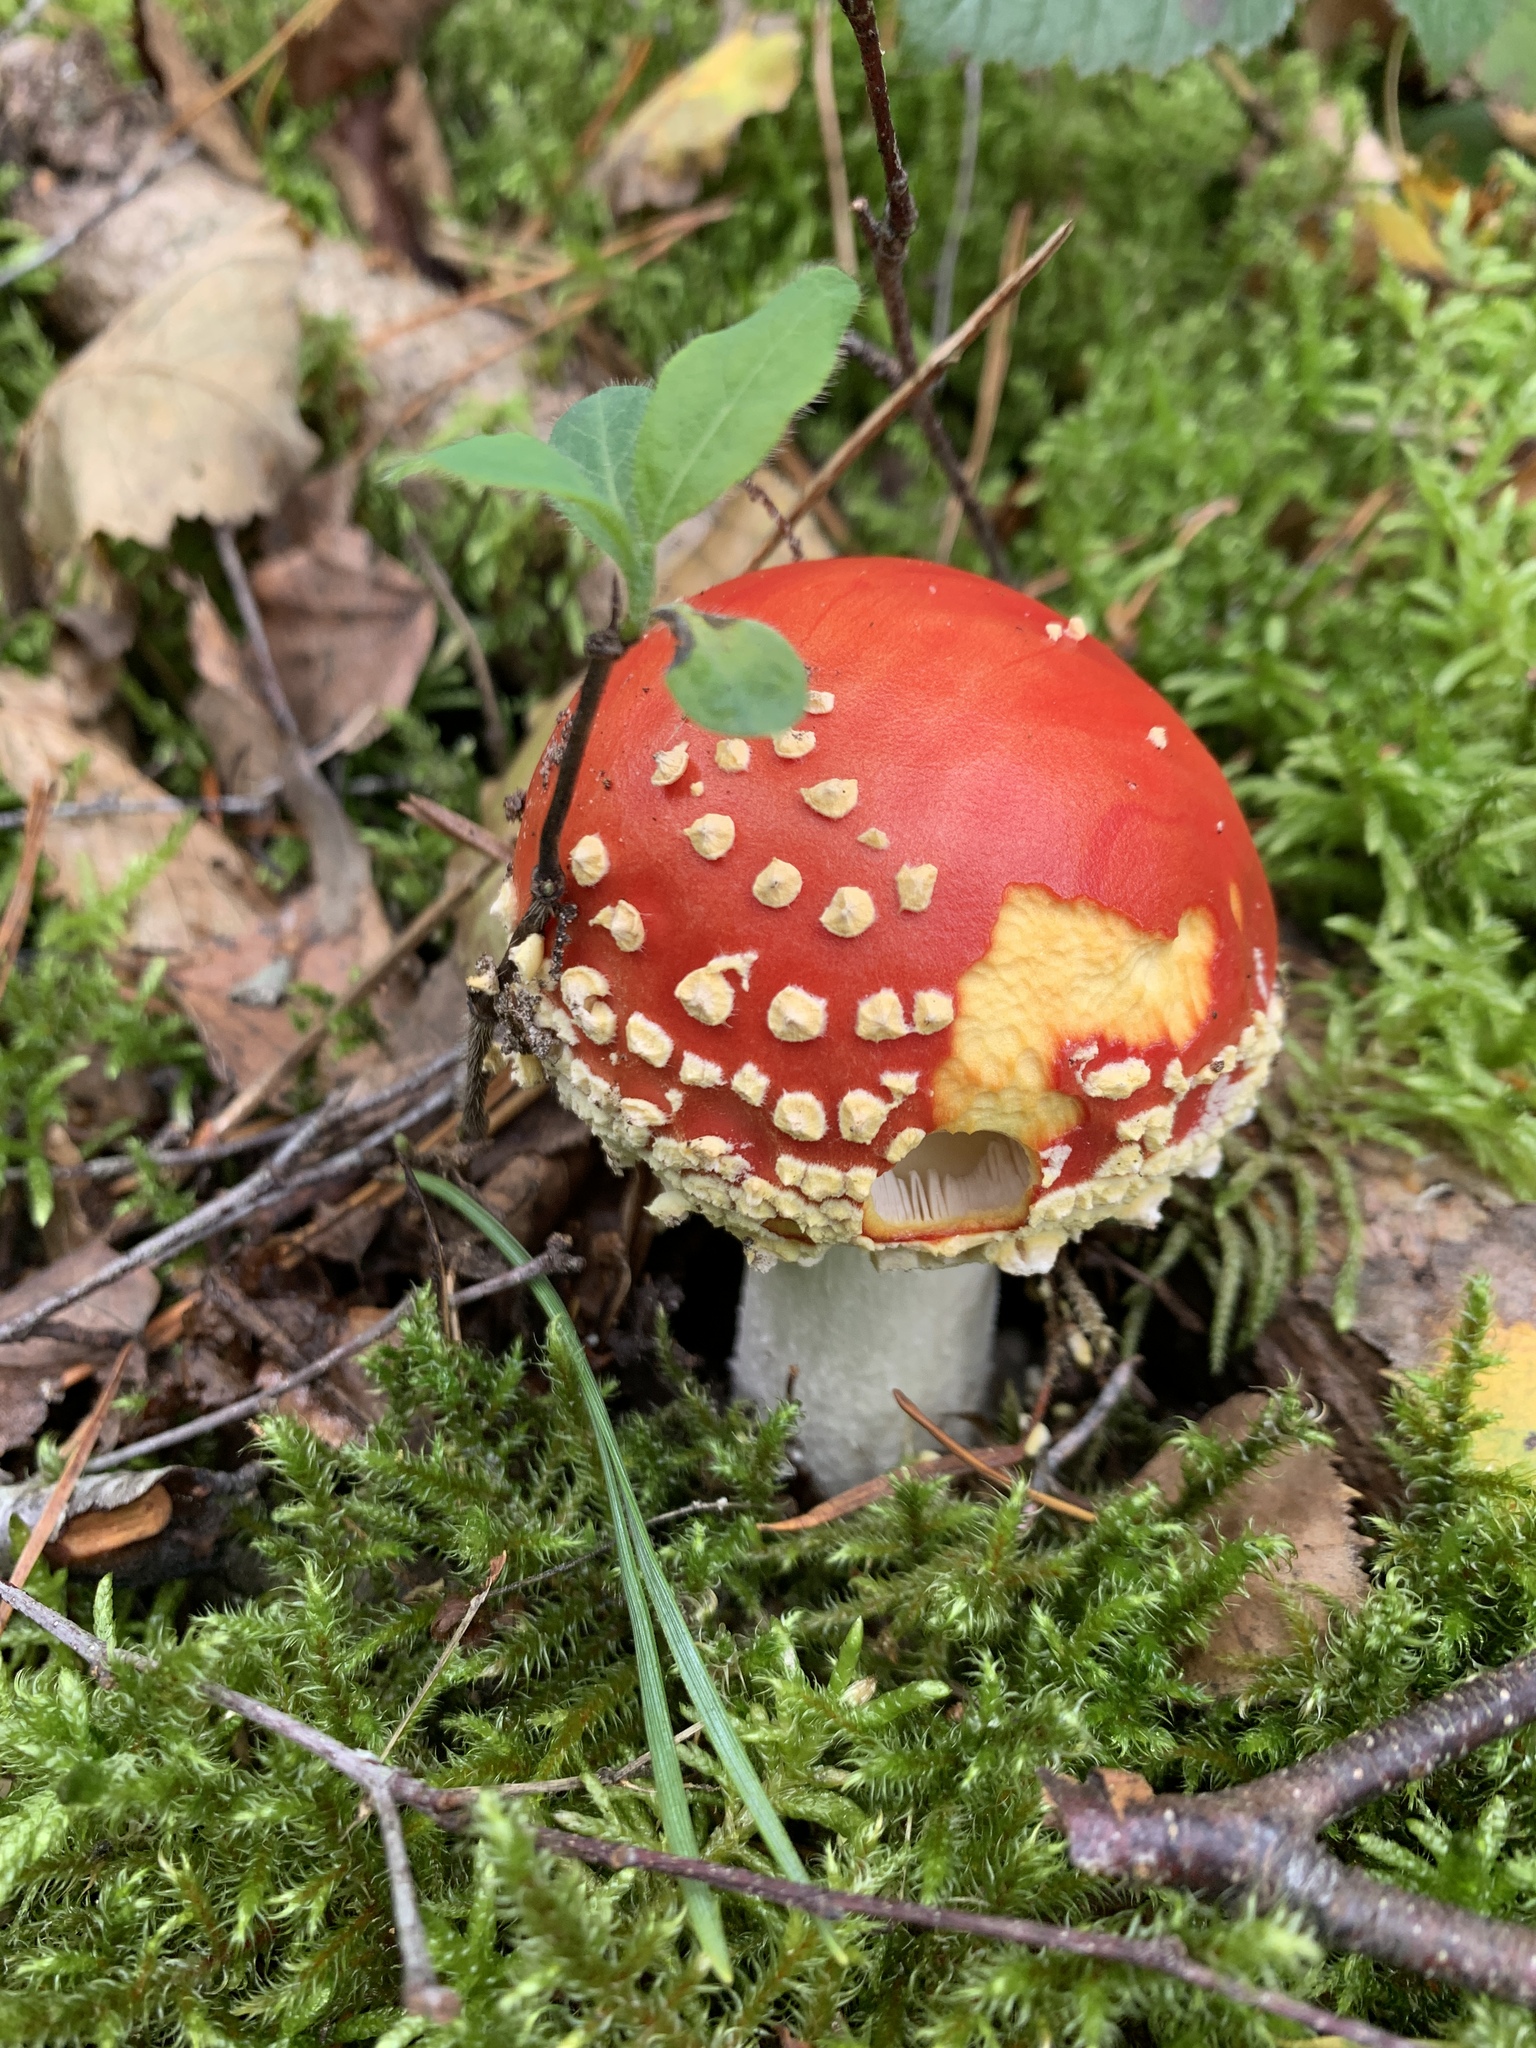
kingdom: Fungi
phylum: Basidiomycota
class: Agaricomycetes
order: Agaricales
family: Amanitaceae
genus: Amanita
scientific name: Amanita muscaria
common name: Fly agaric
